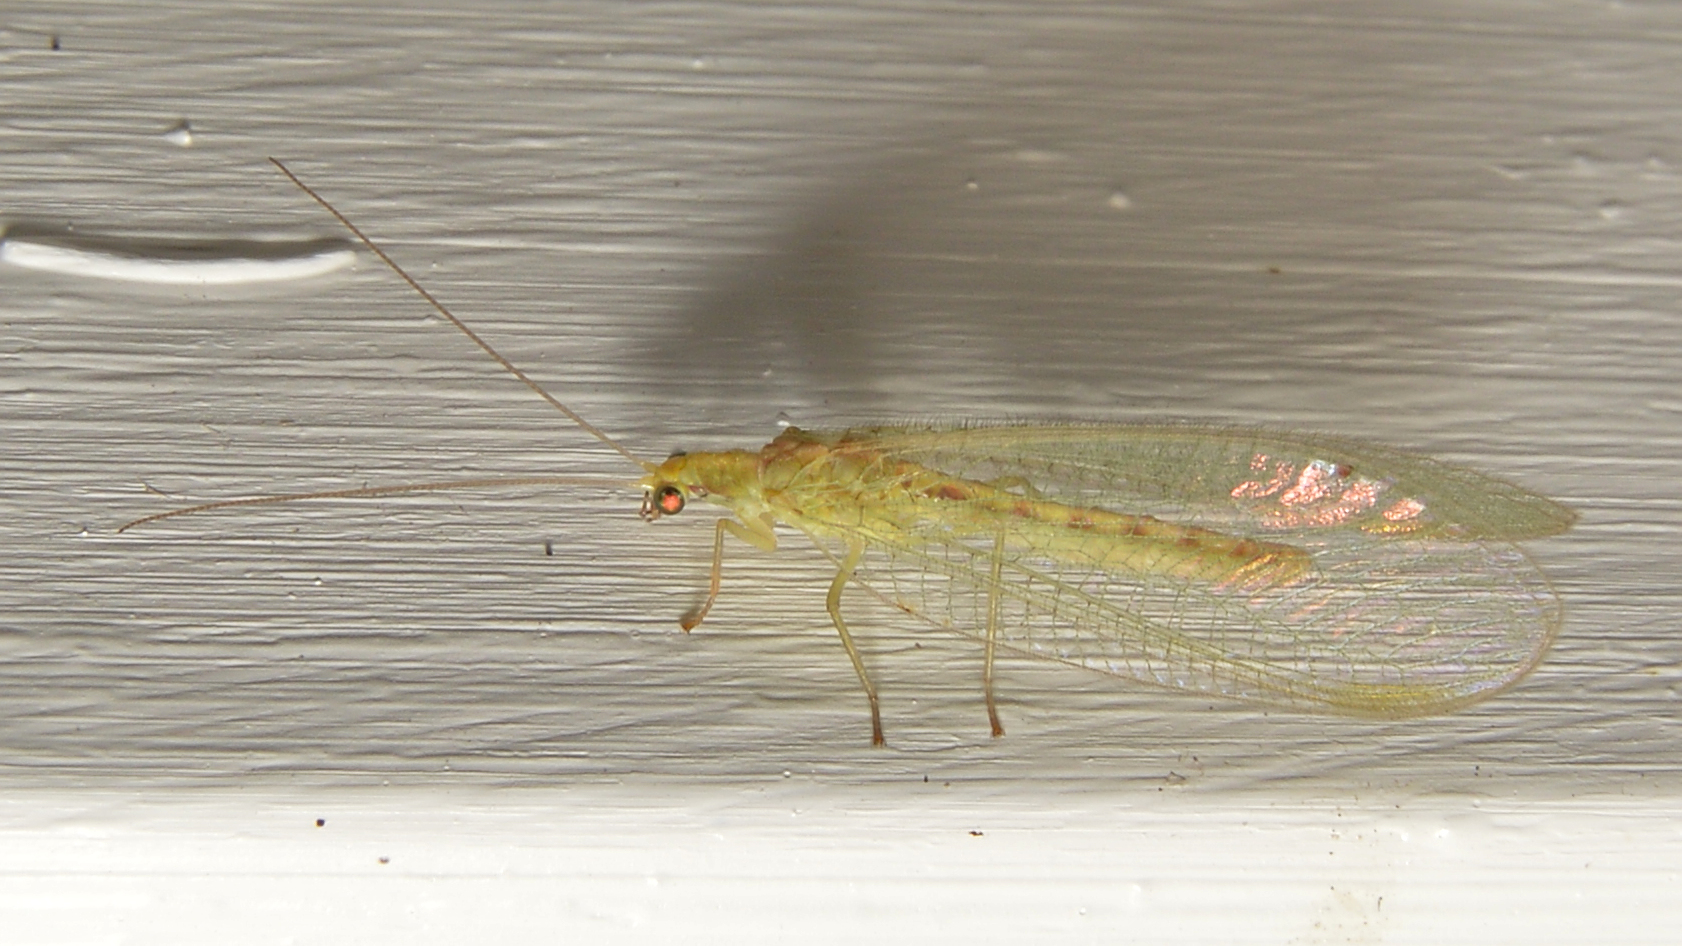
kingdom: Animalia
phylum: Arthropoda
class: Insecta
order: Neuroptera
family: Chrysopidae
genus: Chrysoperla
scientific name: Chrysoperla
